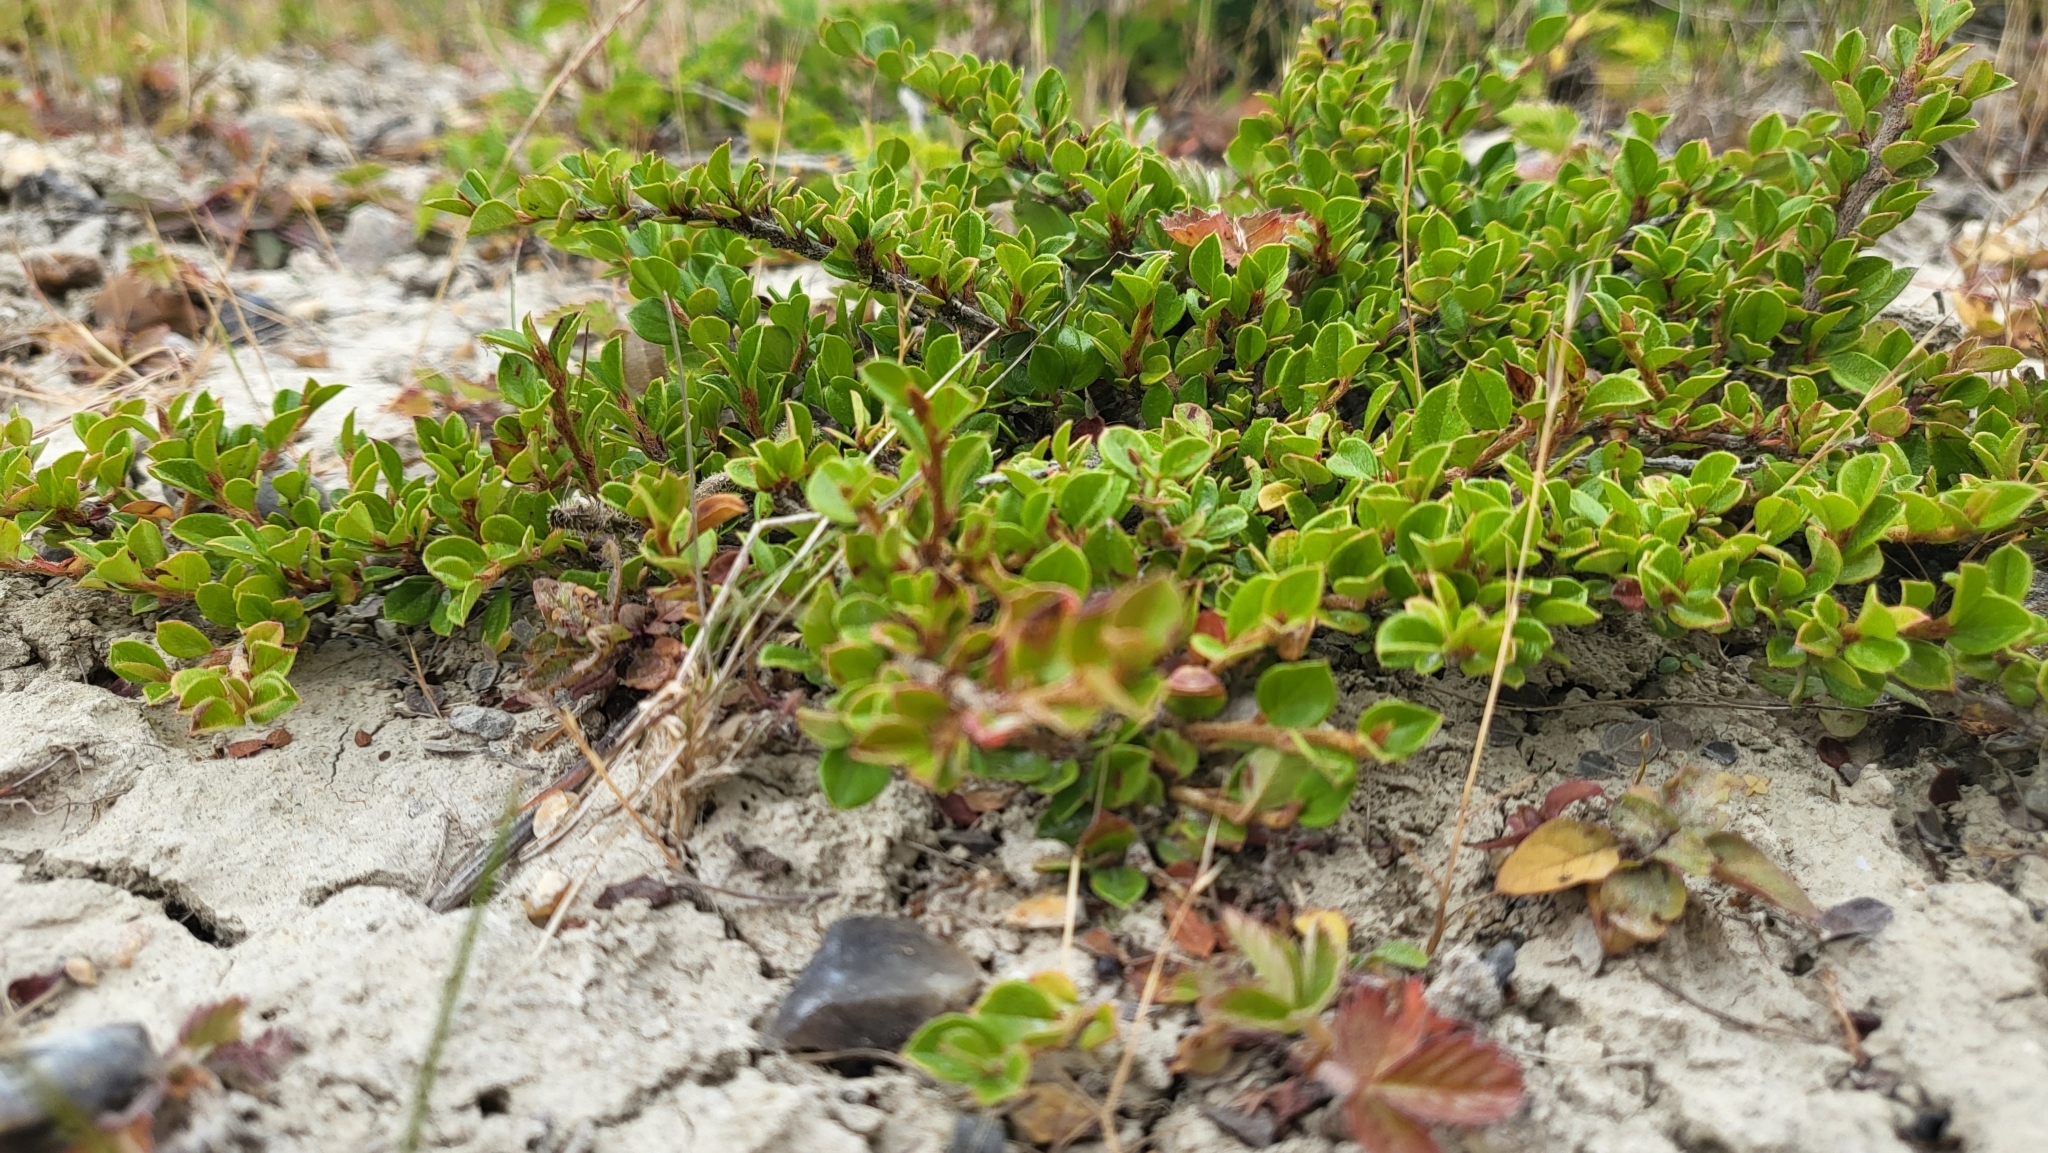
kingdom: Plantae
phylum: Tracheophyta
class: Magnoliopsida
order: Rosales
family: Rosaceae
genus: Cotoneaster
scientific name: Cotoneaster horizontalis
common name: Wall cotoneaster
